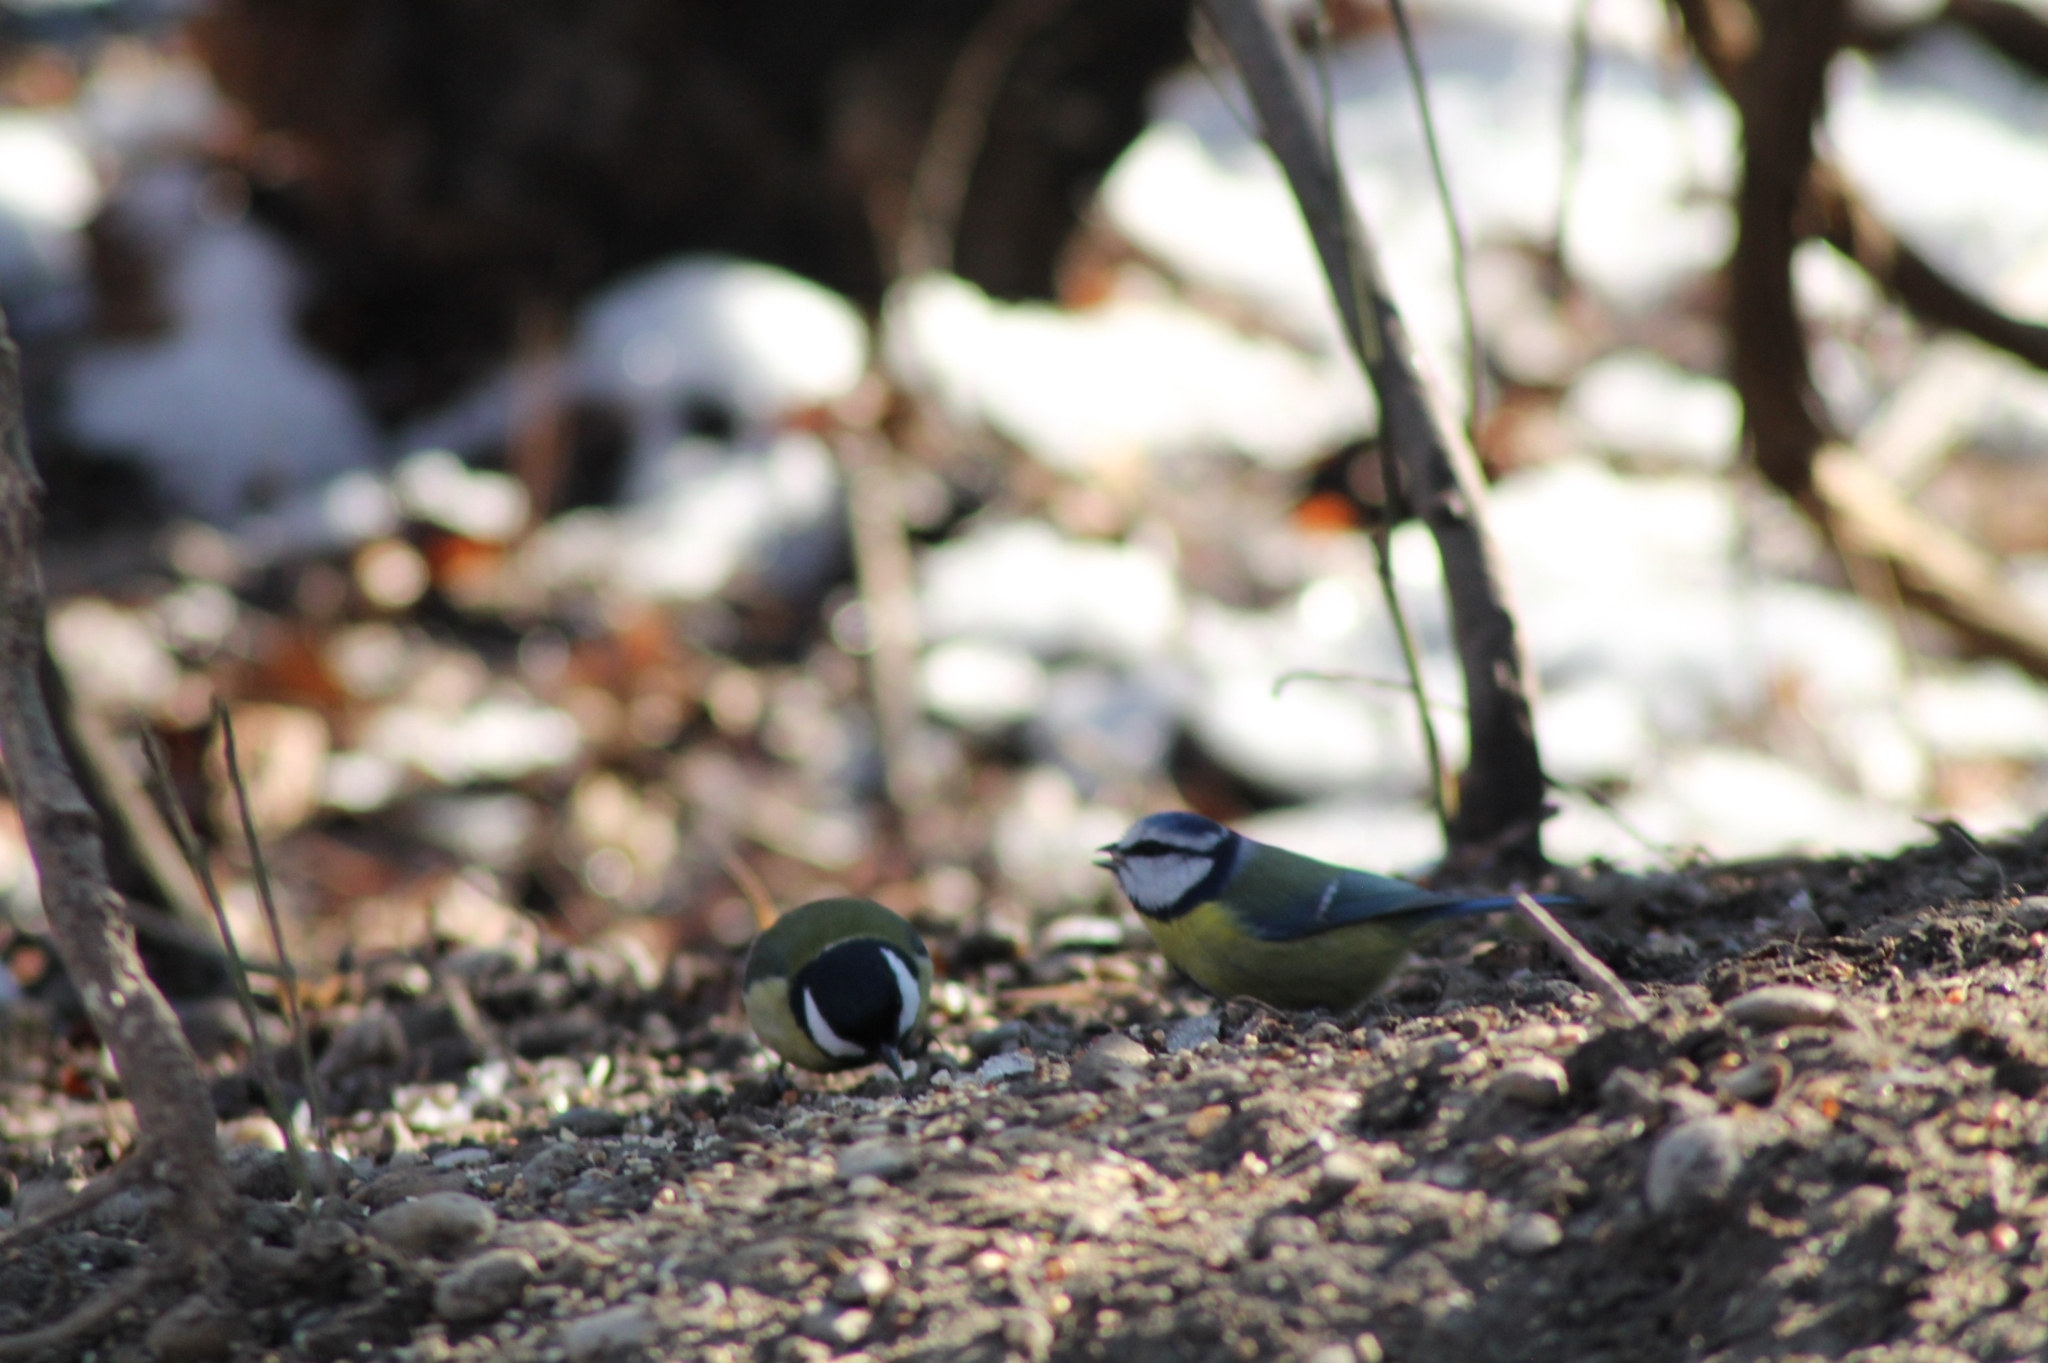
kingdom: Animalia
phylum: Chordata
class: Aves
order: Passeriformes
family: Paridae
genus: Cyanistes
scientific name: Cyanistes caeruleus
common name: Eurasian blue tit
